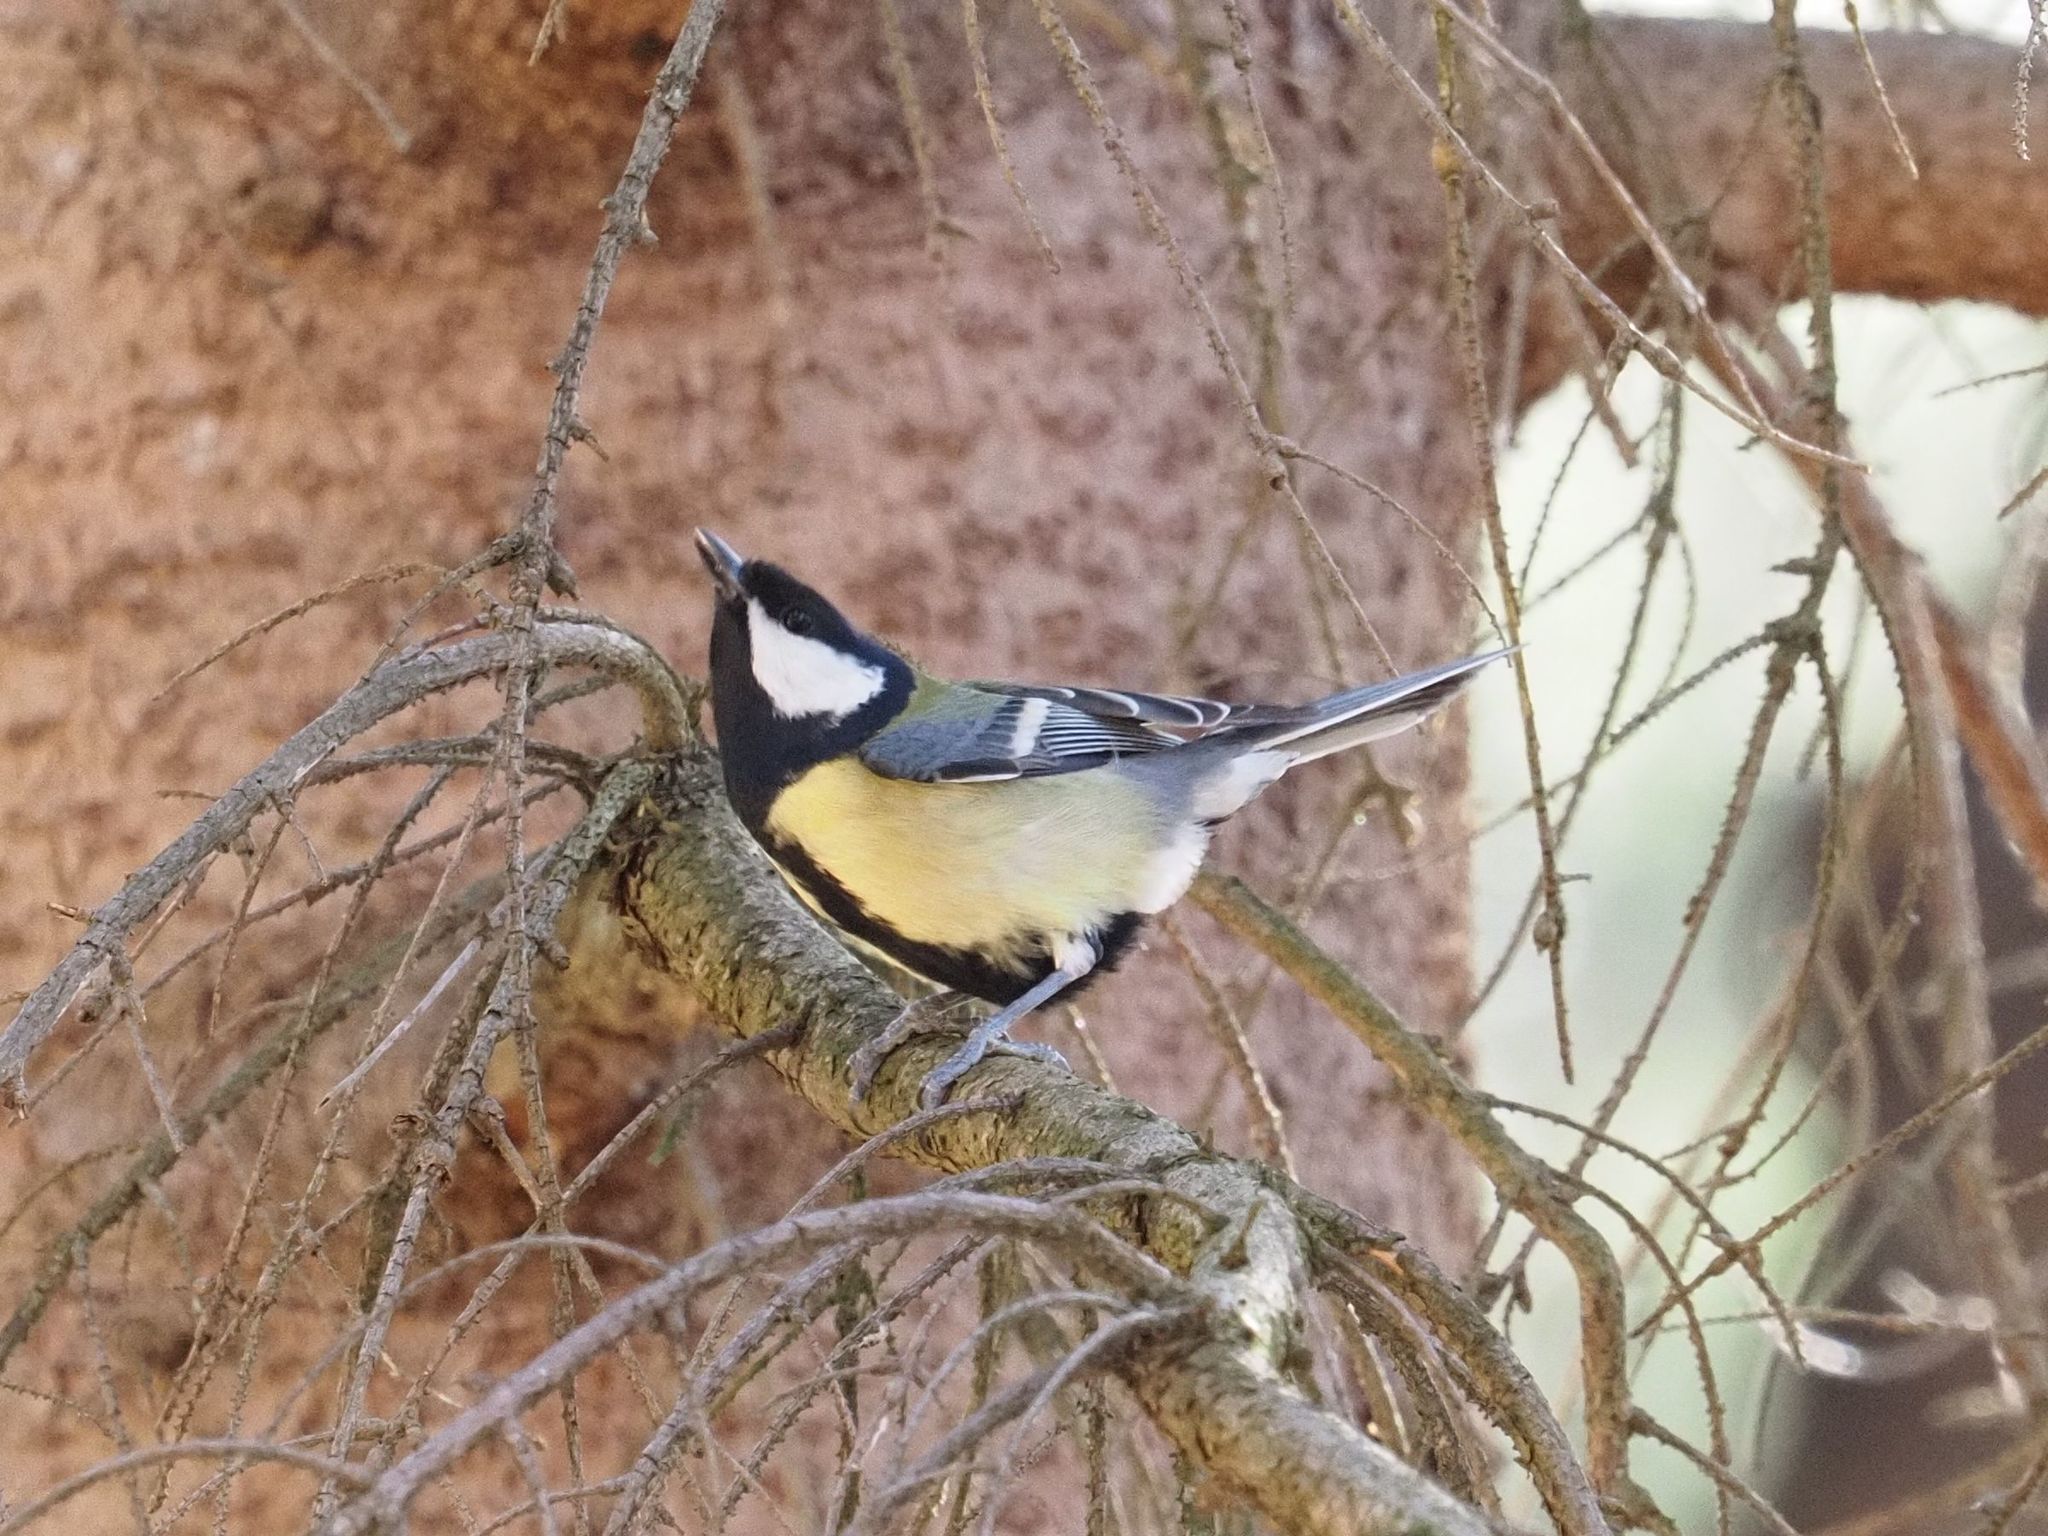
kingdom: Animalia
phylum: Chordata
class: Aves
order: Passeriformes
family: Paridae
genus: Parus
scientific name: Parus major
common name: Great tit
